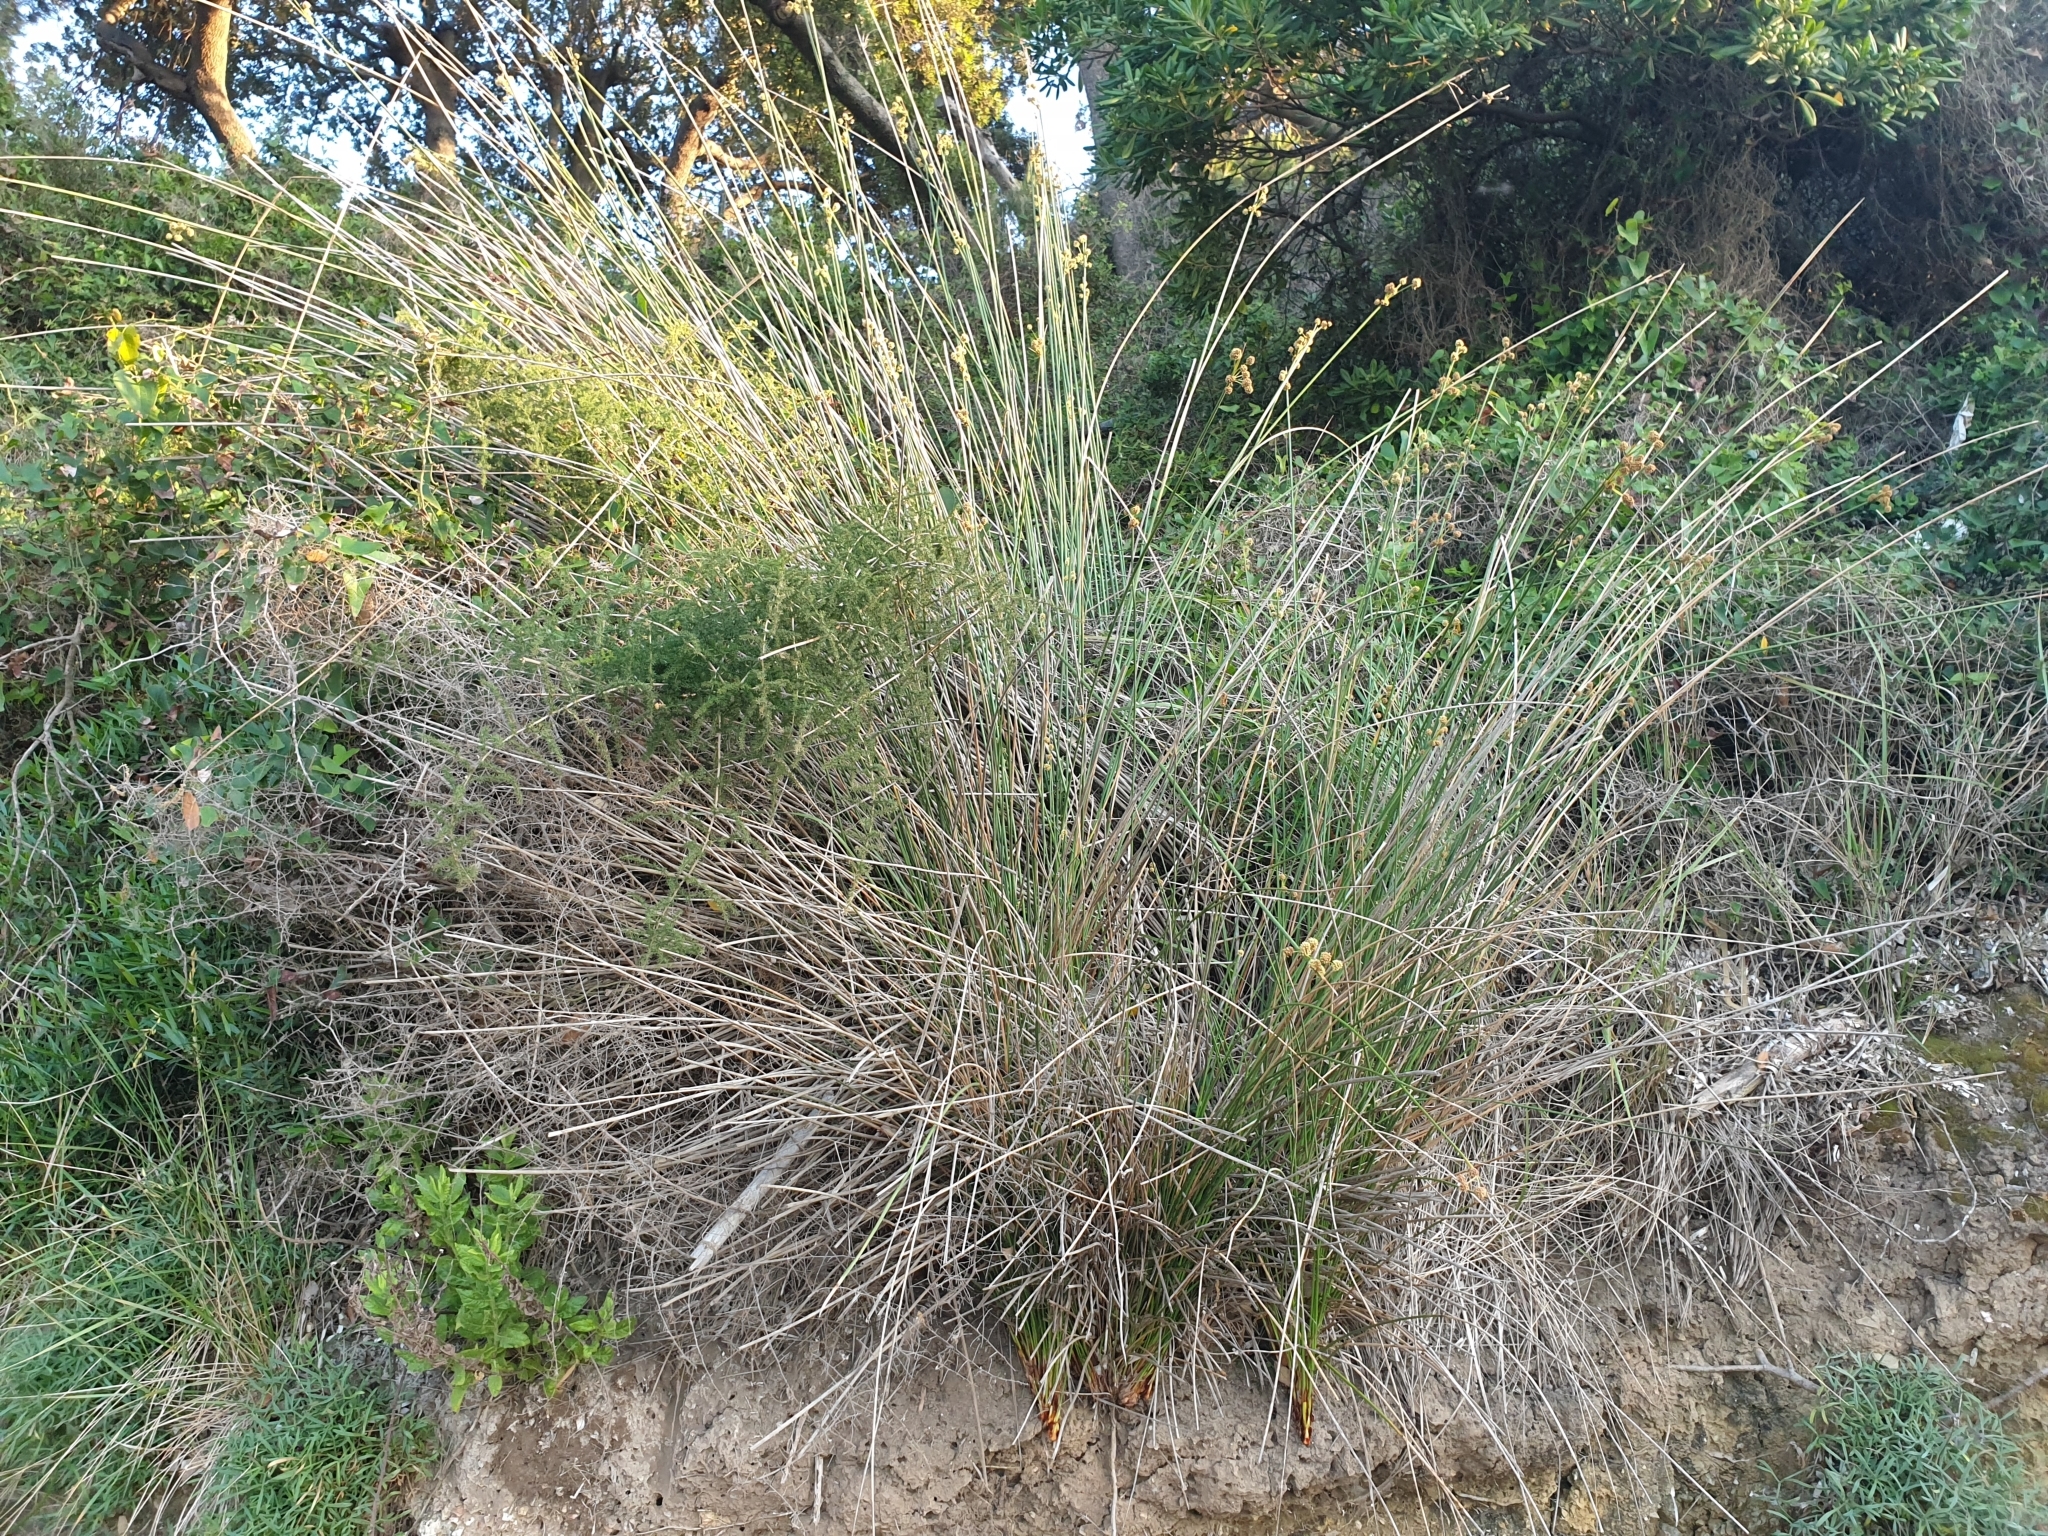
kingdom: Plantae
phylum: Tracheophyta
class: Liliopsida
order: Poales
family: Cyperaceae
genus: Scirpoides
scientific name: Scirpoides holoschoenus
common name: Round-headed club-rush
